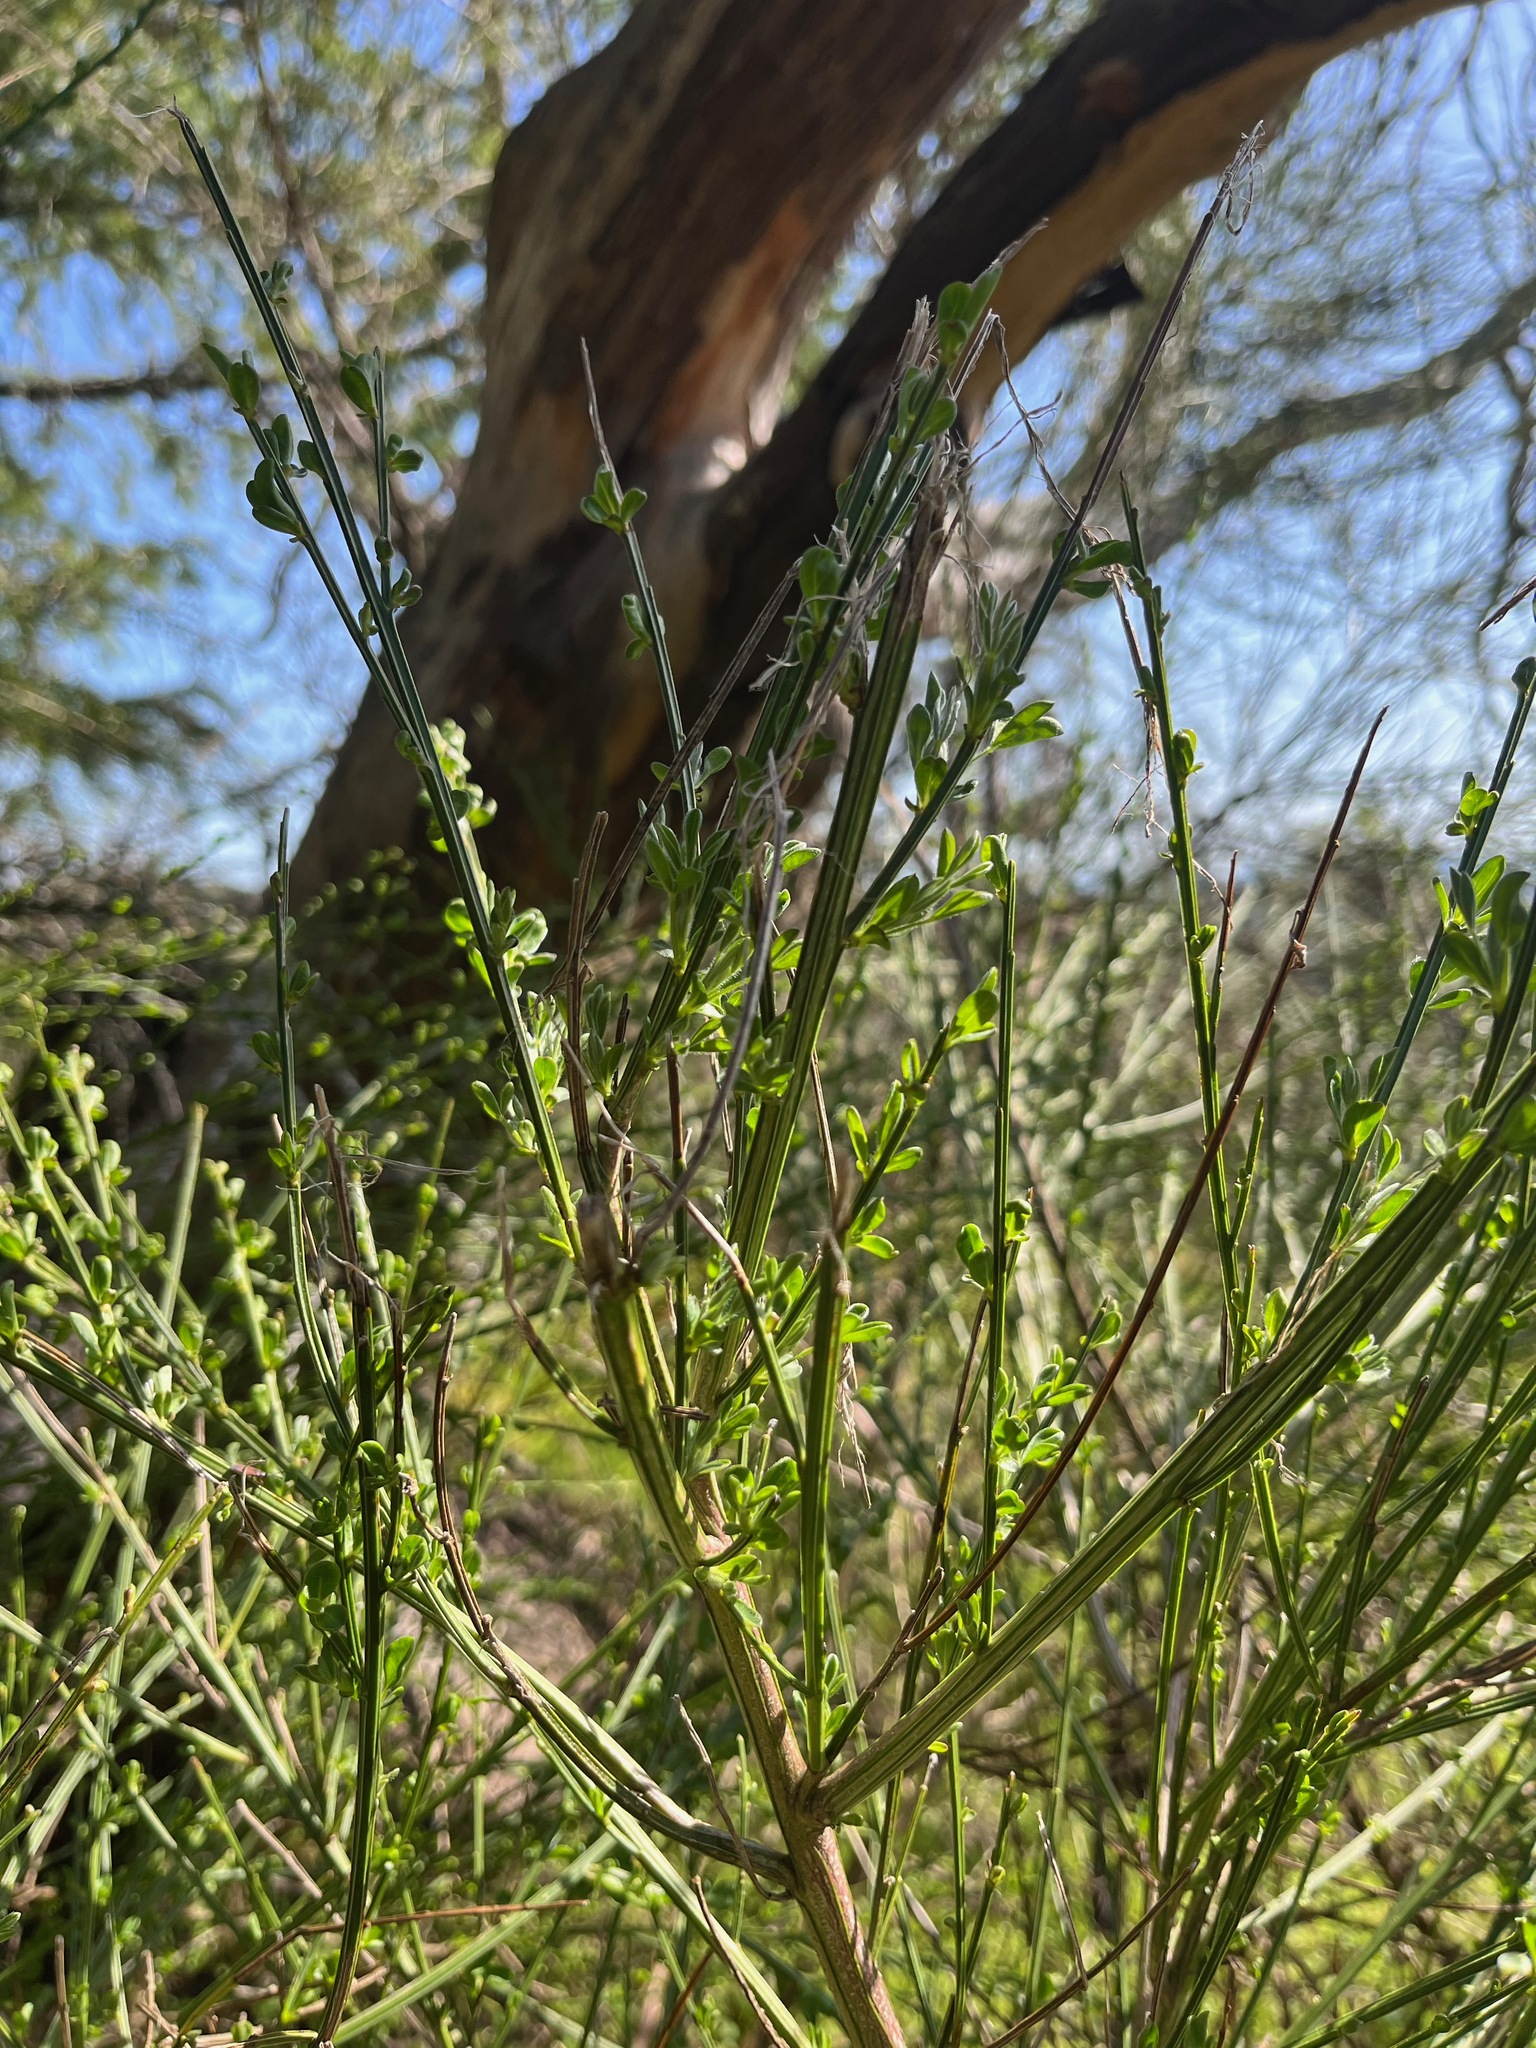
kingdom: Plantae
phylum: Tracheophyta
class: Magnoliopsida
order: Fabales
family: Fabaceae
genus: Cytisus
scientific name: Cytisus scoparius
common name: Scotch broom
